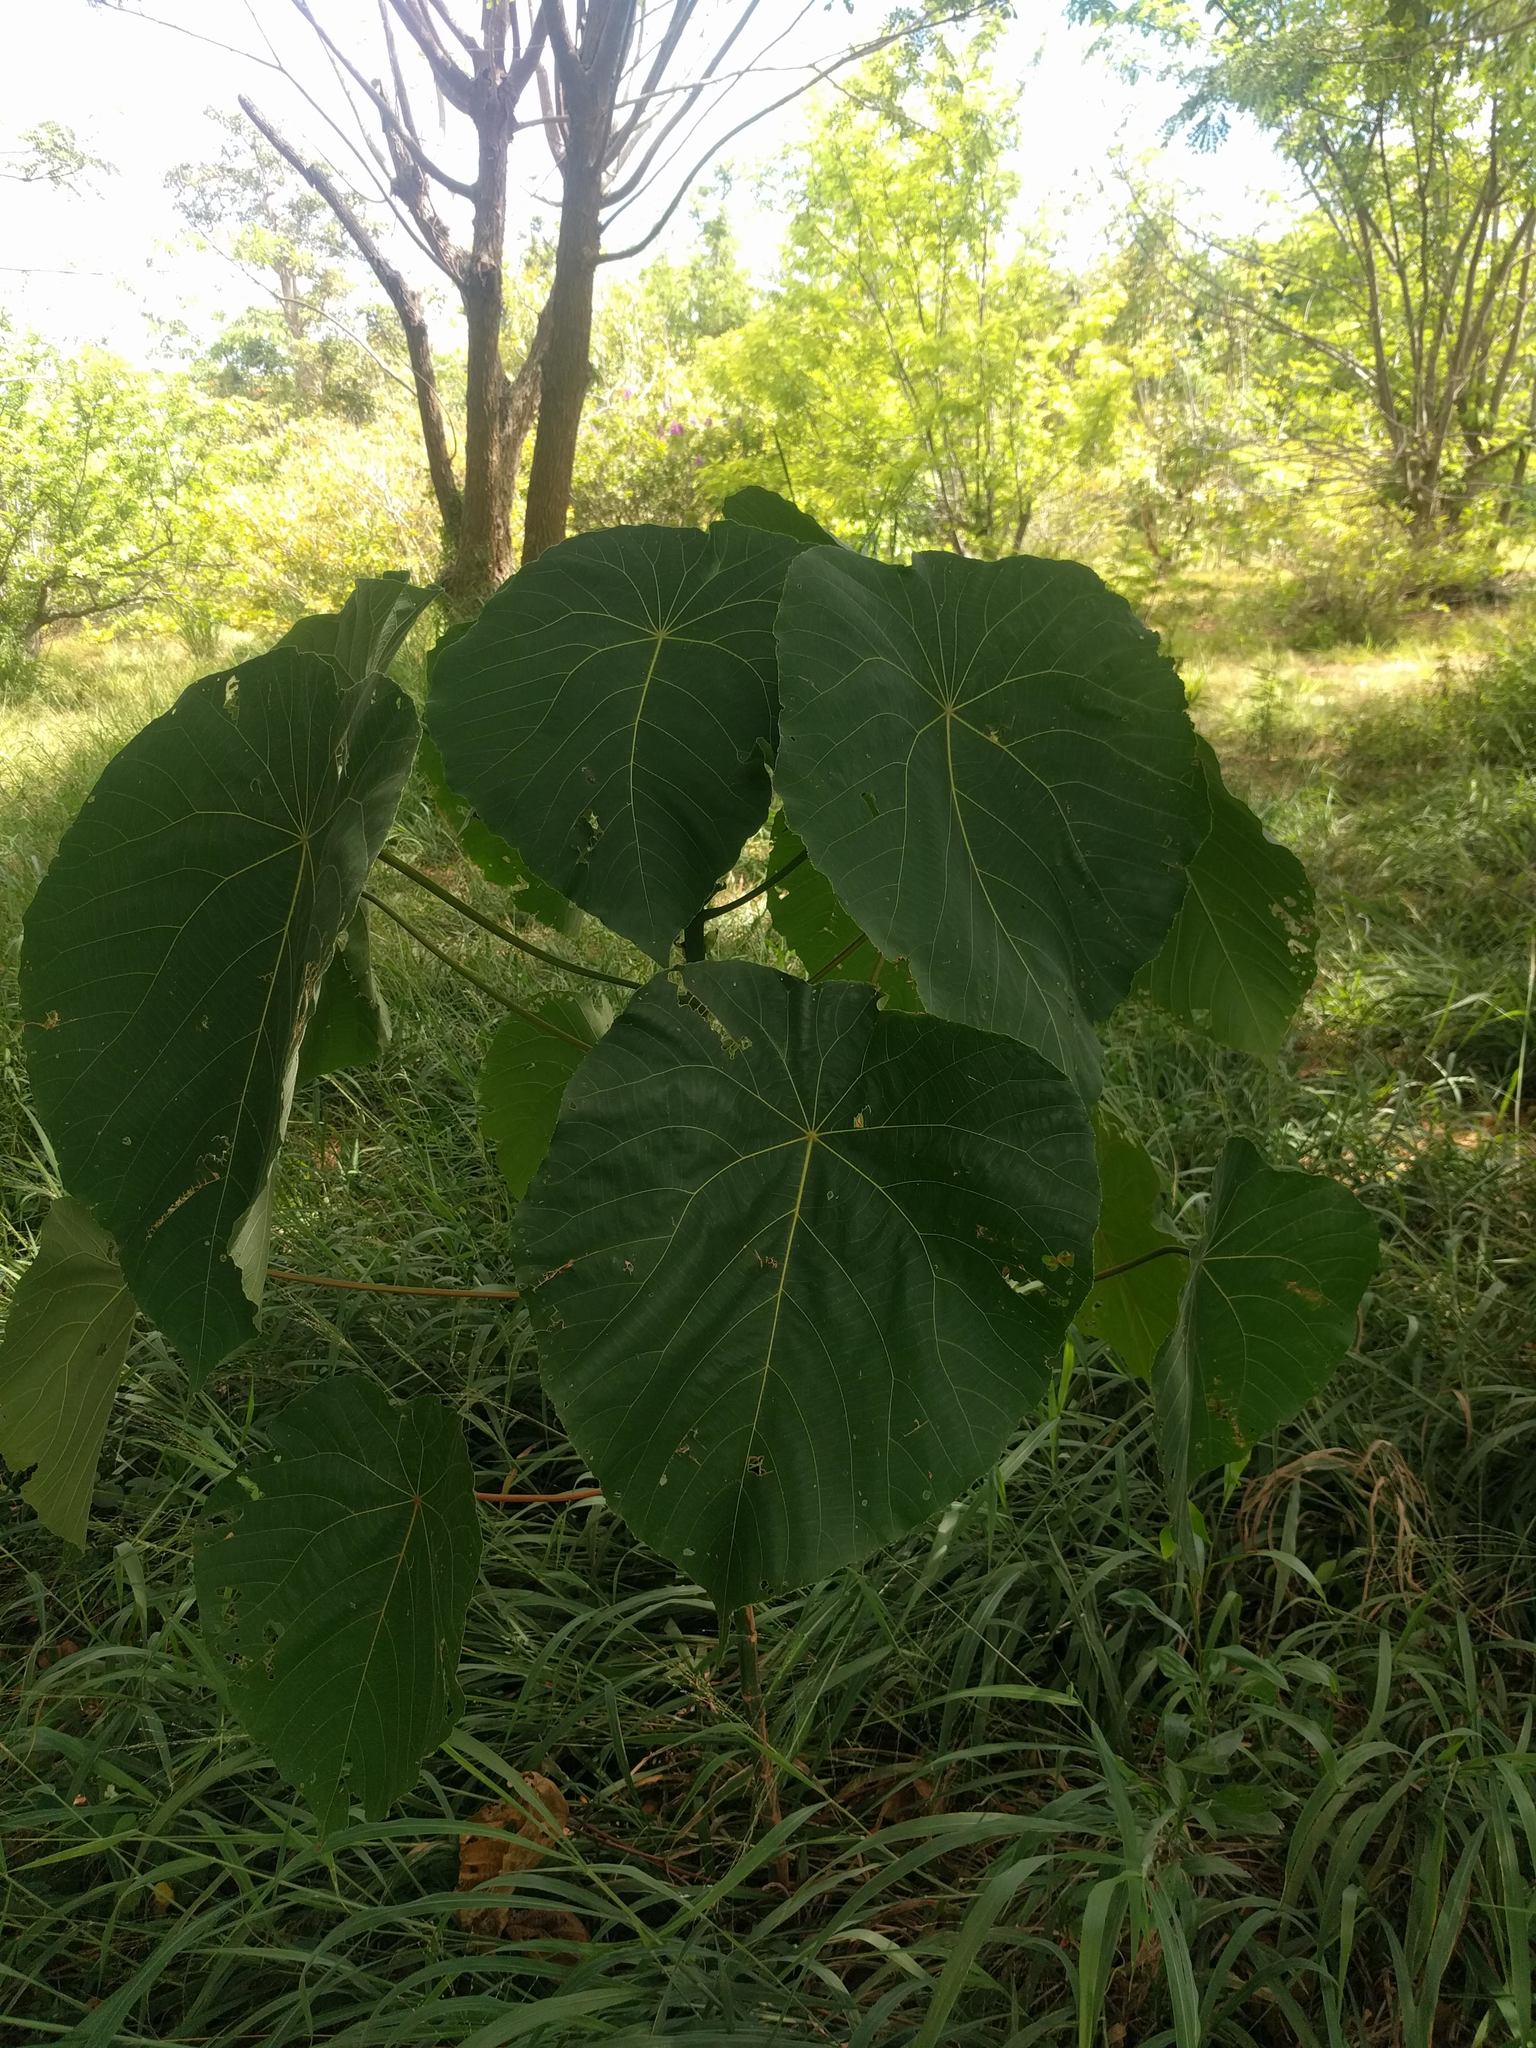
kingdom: Plantae
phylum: Tracheophyta
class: Magnoliopsida
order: Malpighiales
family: Euphorbiaceae
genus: Macaranga
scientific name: Macaranga tanarius
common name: Parasol leaf tree
